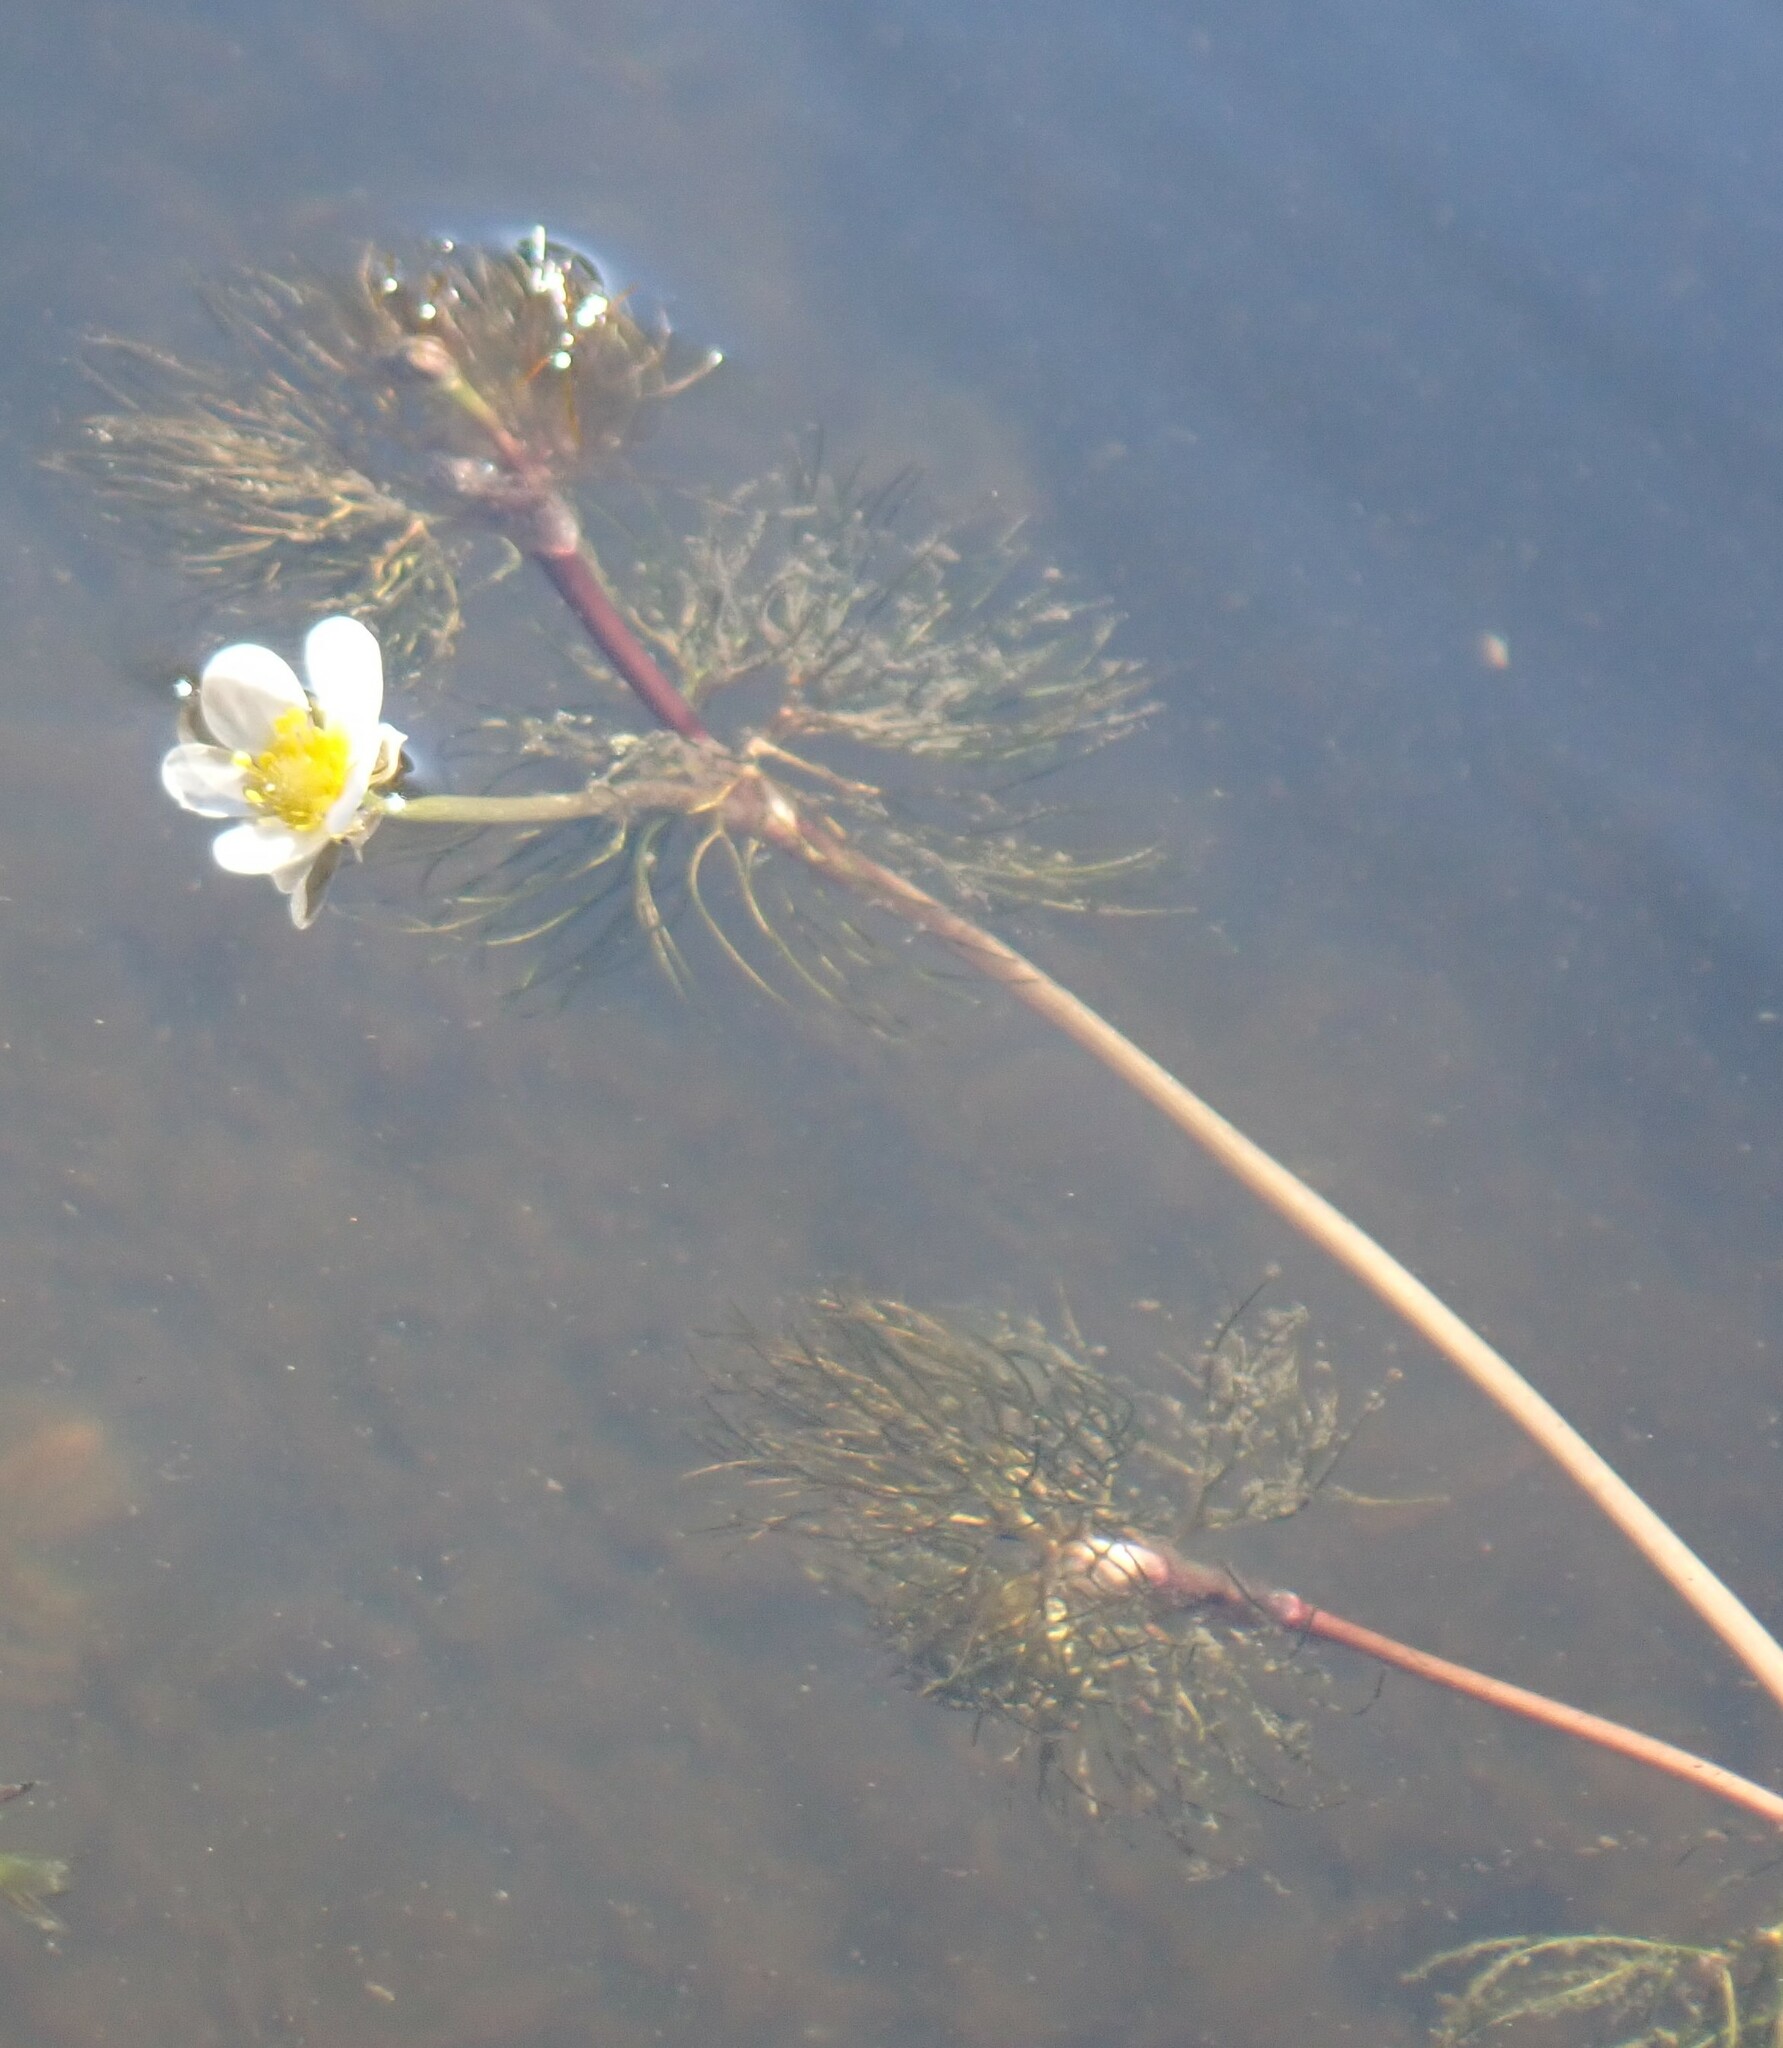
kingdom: Plantae
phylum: Tracheophyta
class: Magnoliopsida
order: Ranunculales
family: Ranunculaceae
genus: Ranunculus
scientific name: Ranunculus longirostris
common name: Curly white water-crowfoot
